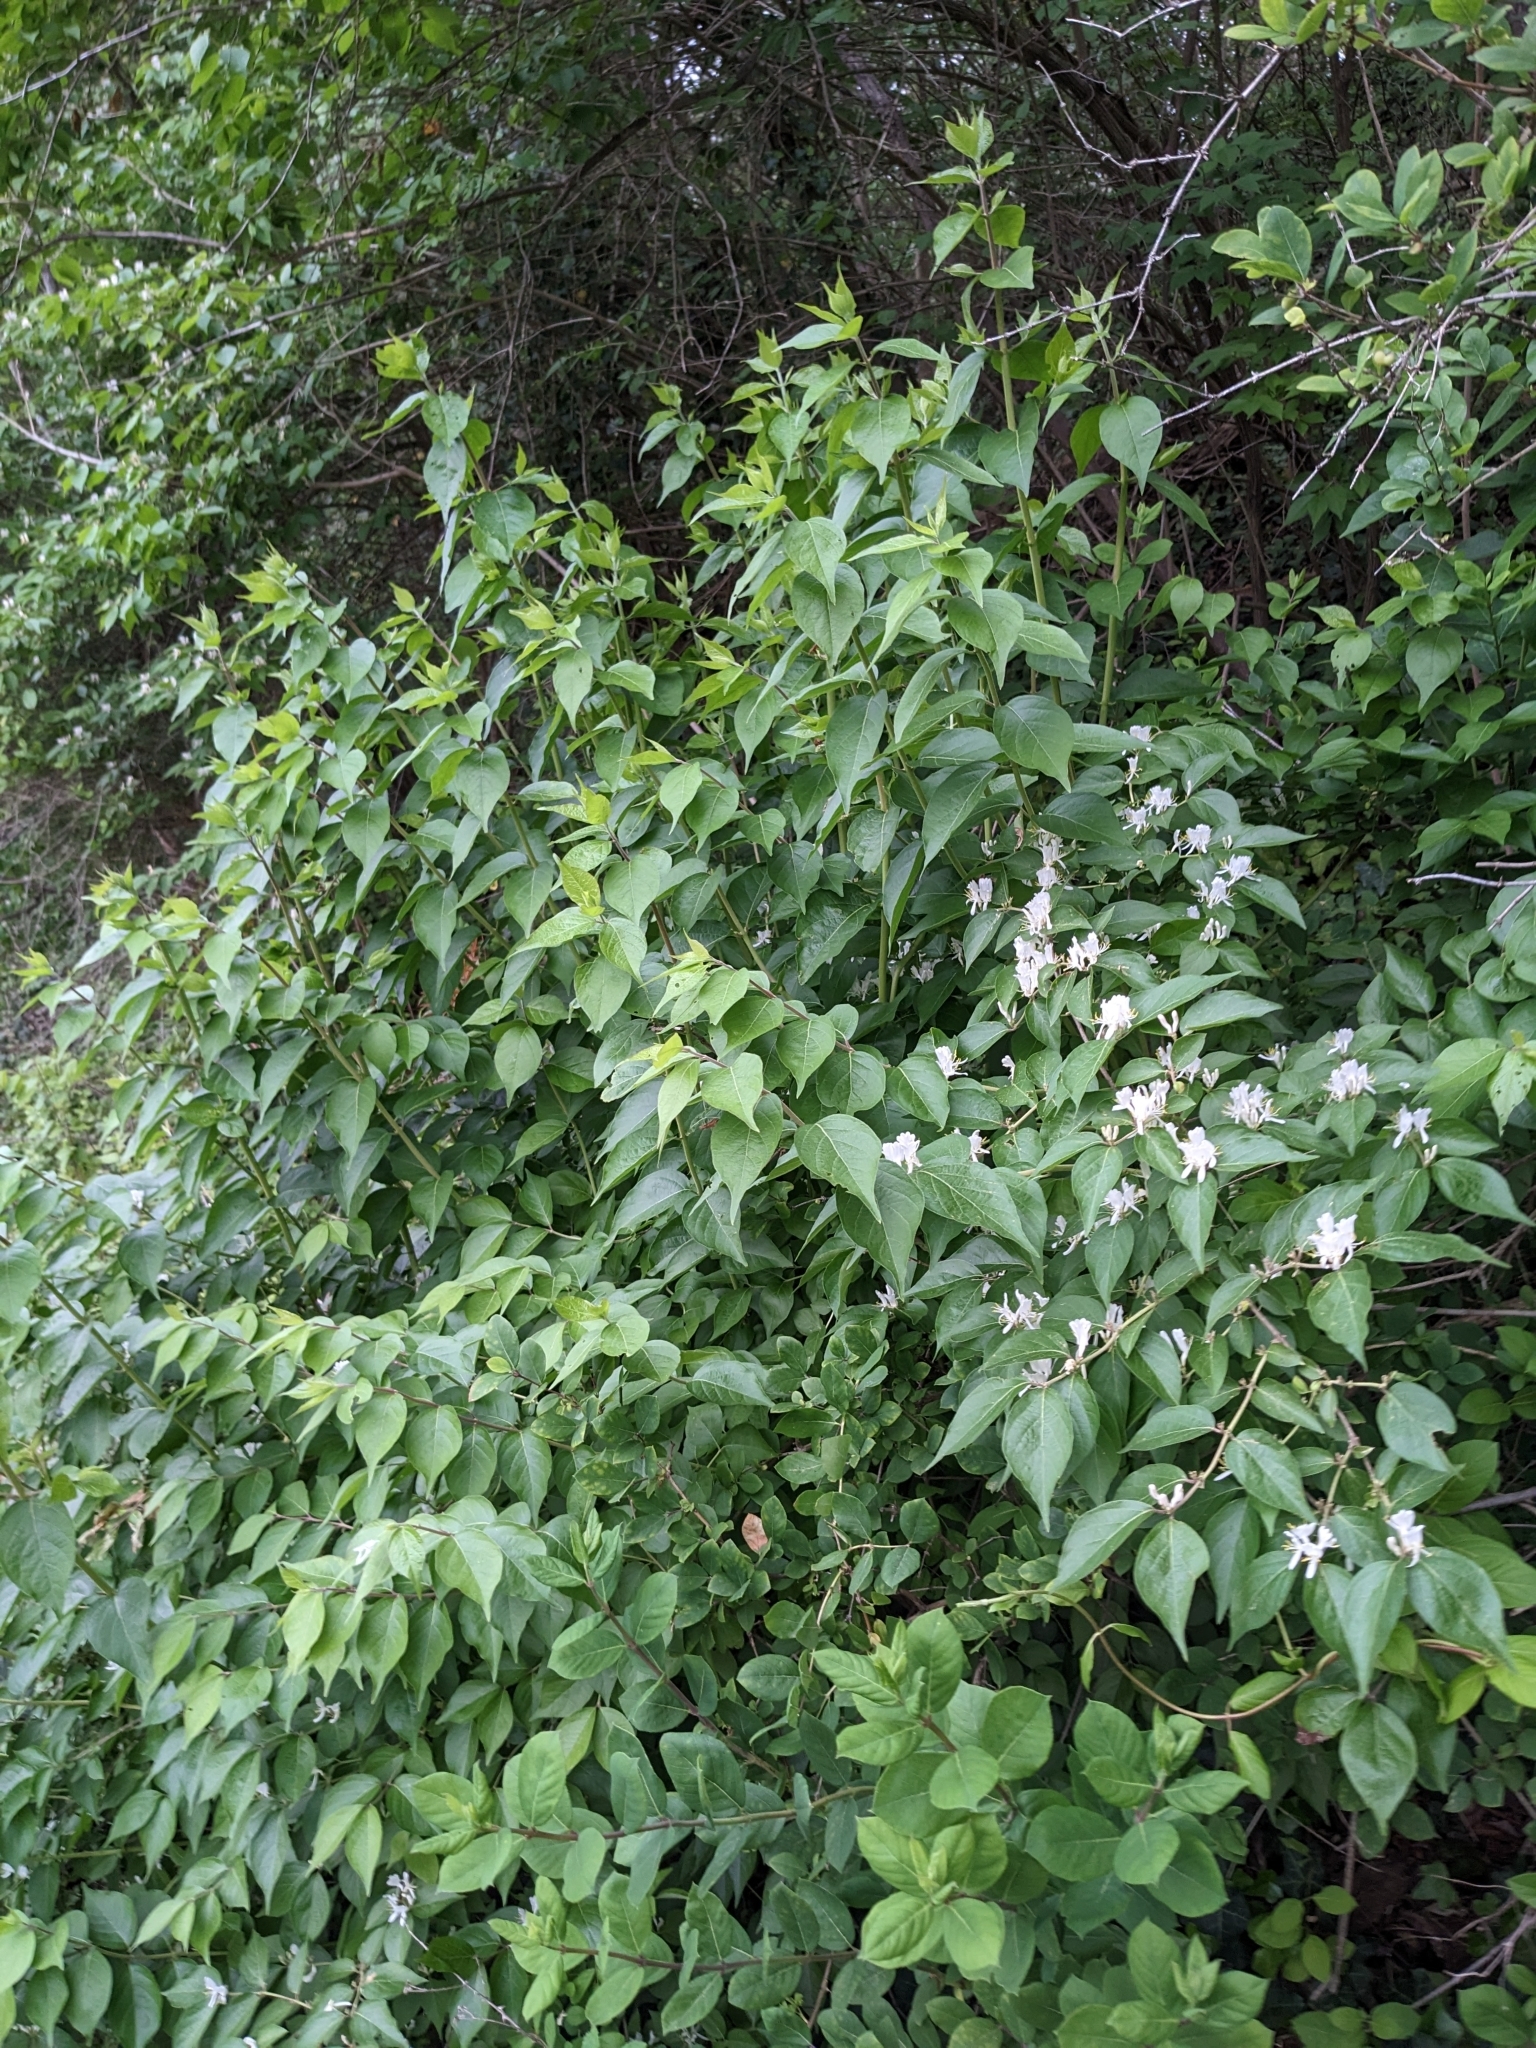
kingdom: Plantae
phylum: Tracheophyta
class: Magnoliopsida
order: Dipsacales
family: Caprifoliaceae
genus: Lonicera
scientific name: Lonicera maackii
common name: Amur honeysuckle
